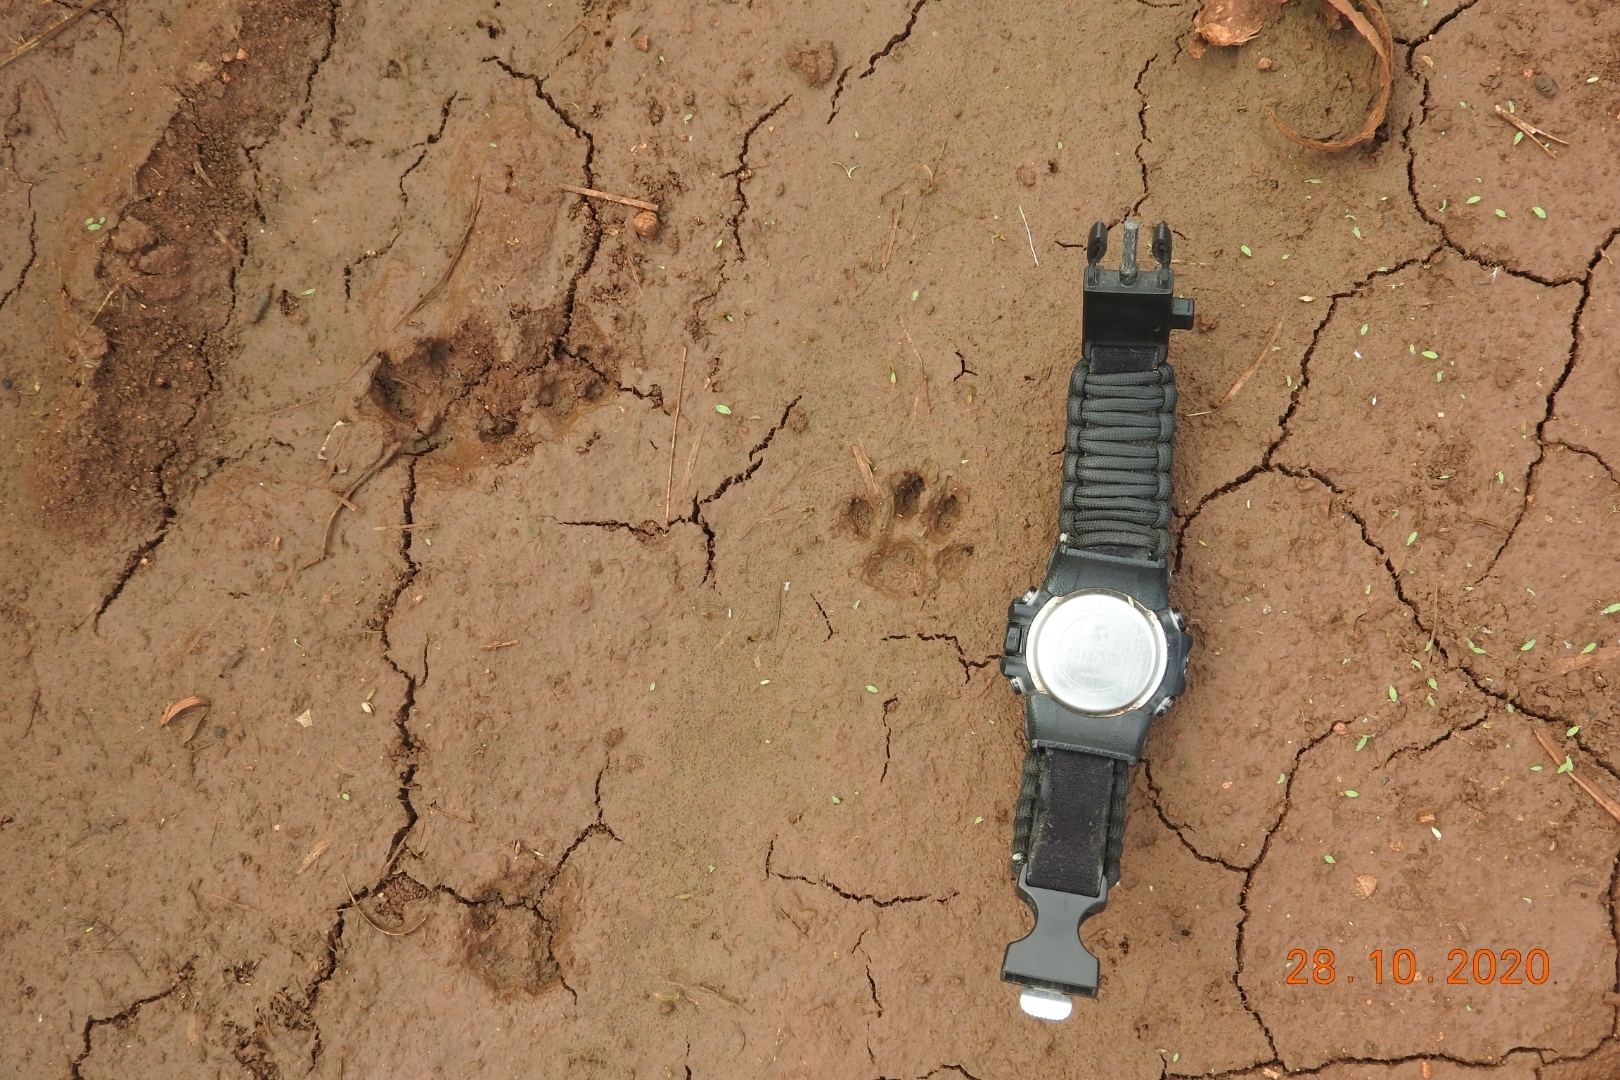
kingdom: Animalia
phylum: Chordata
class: Mammalia
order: Carnivora
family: Canidae
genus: Urocyon
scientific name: Urocyon cinereoargenteus
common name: Gray fox
